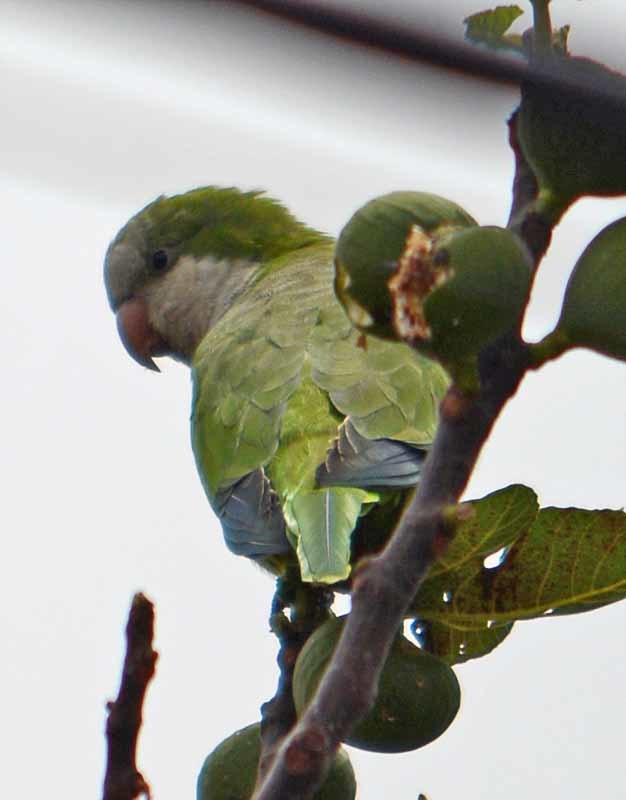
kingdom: Animalia
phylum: Chordata
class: Aves
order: Psittaciformes
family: Psittacidae
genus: Myiopsitta
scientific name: Myiopsitta monachus
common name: Monk parakeet
